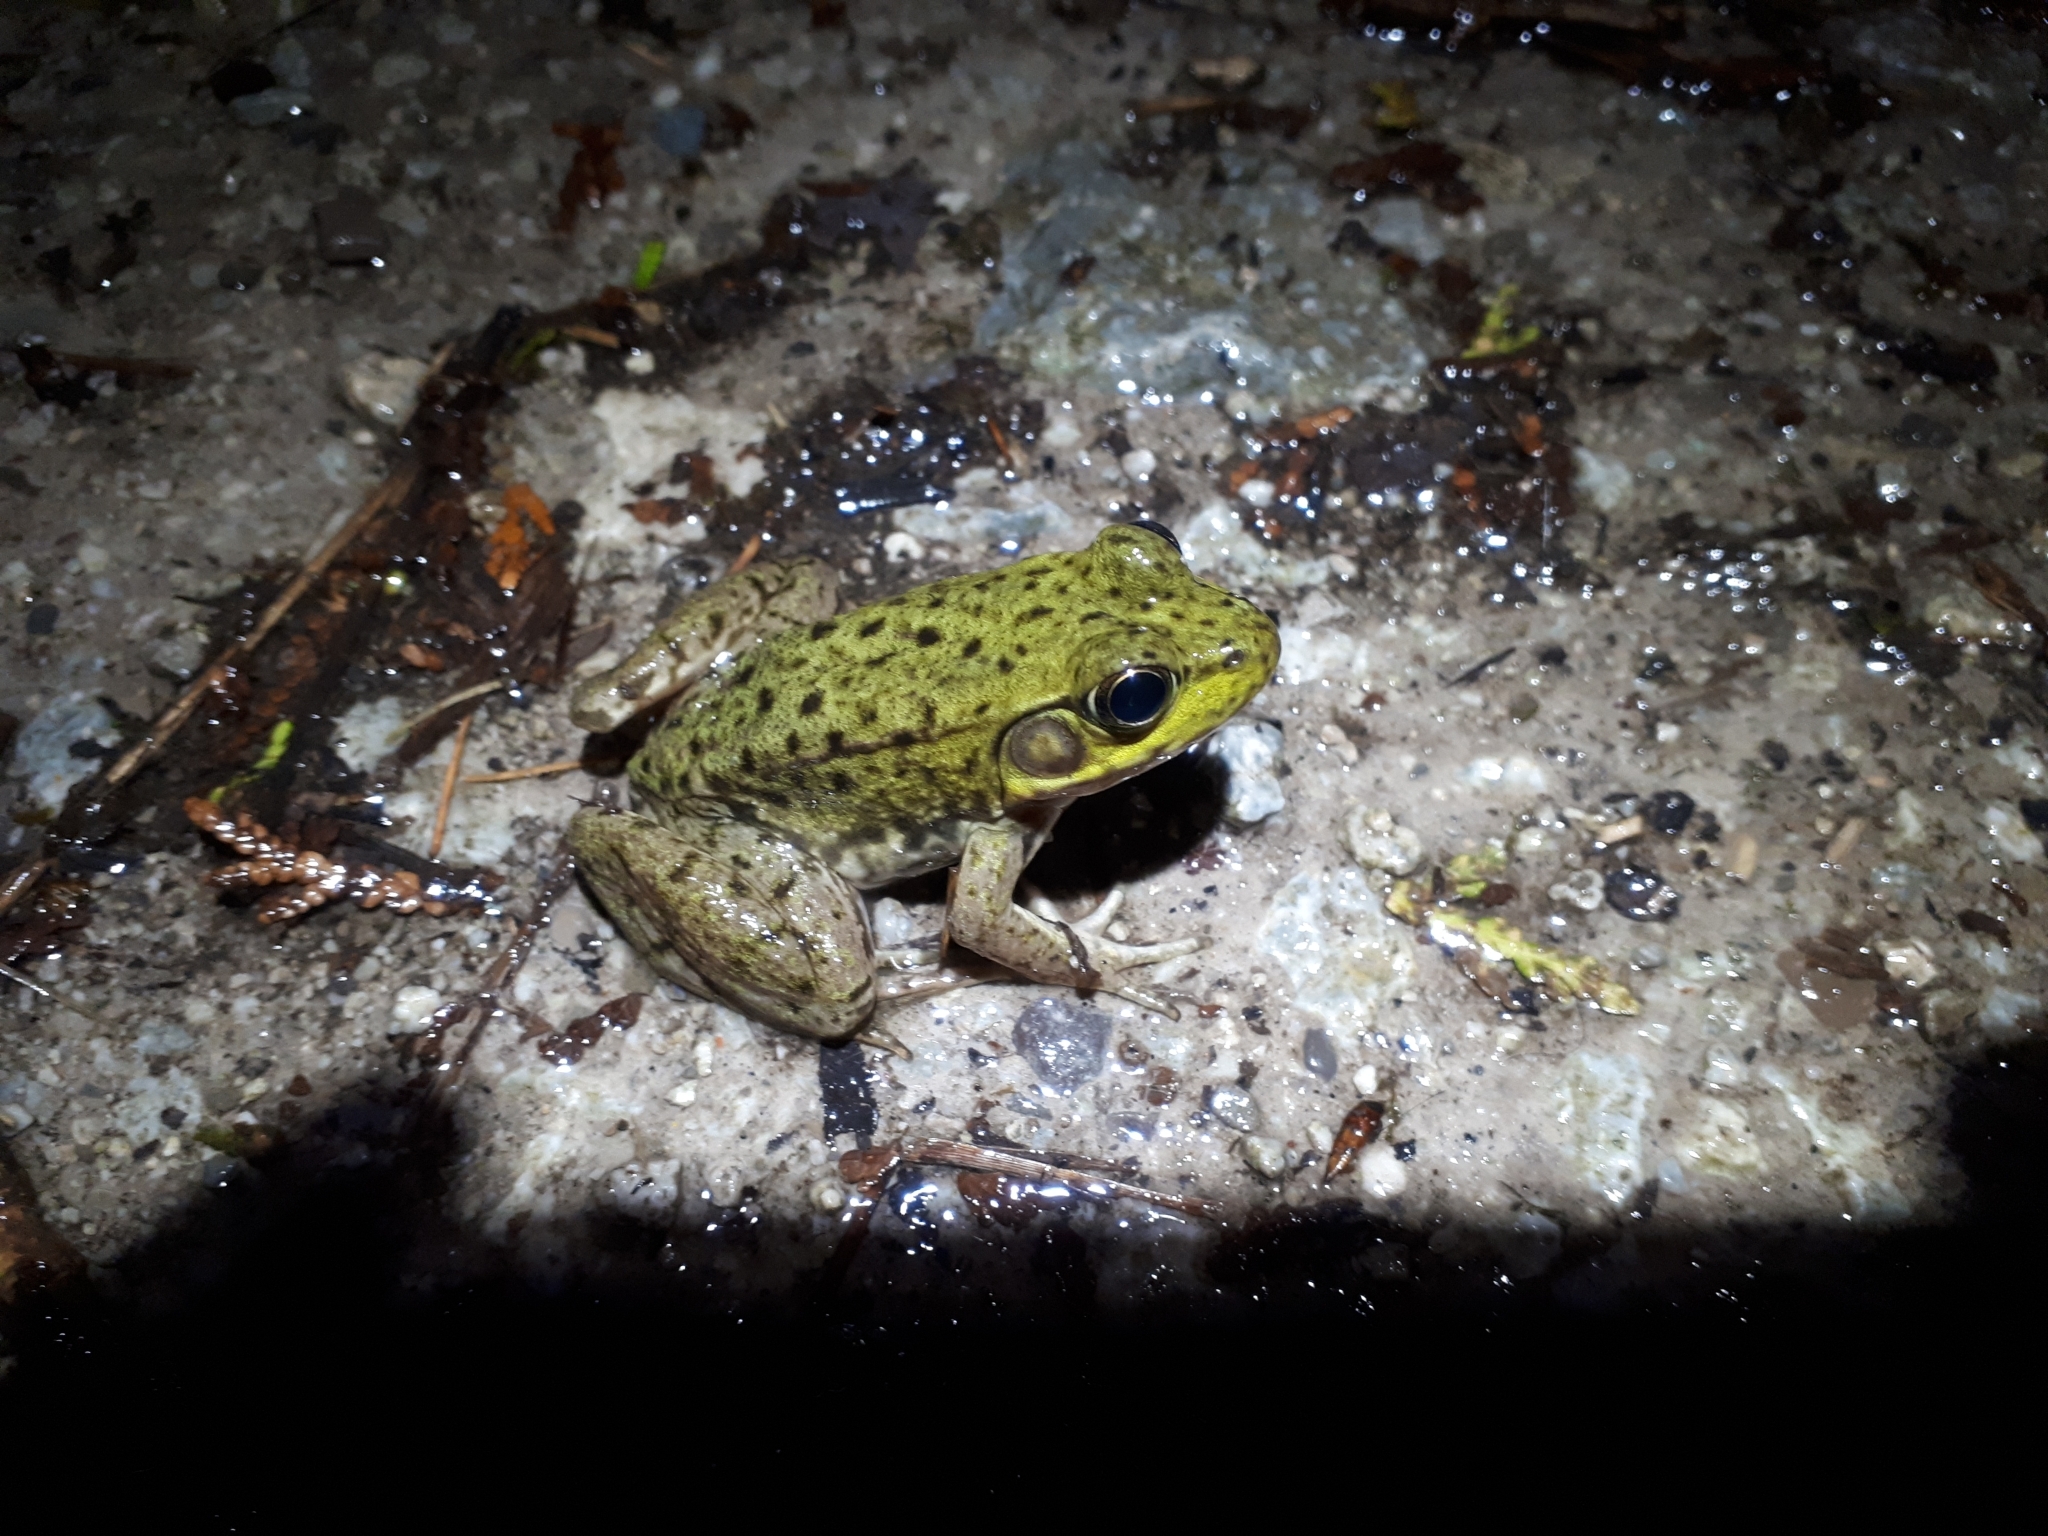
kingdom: Animalia
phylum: Chordata
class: Amphibia
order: Anura
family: Ranidae
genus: Lithobates
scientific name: Lithobates clamitans
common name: Green frog
